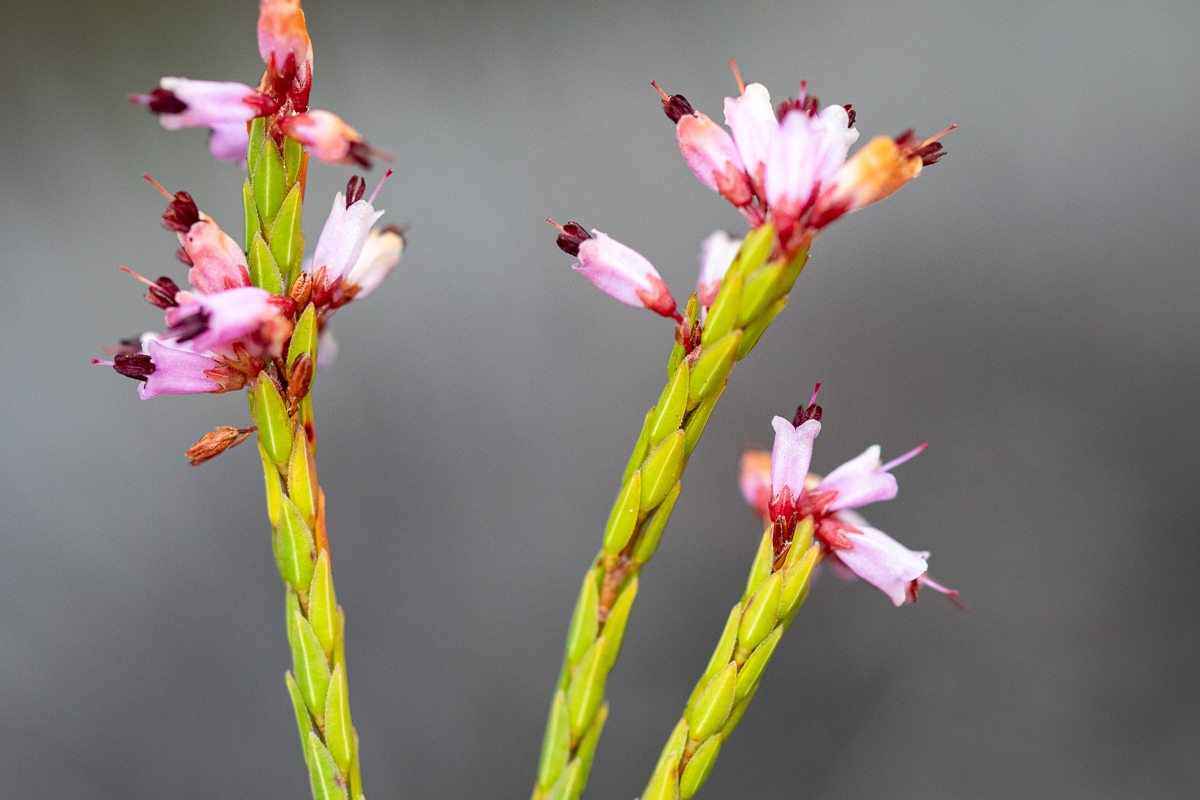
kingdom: Plantae
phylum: Tracheophyta
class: Magnoliopsida
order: Ericales
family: Ericaceae
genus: Erica
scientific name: Erica equisetifolia
